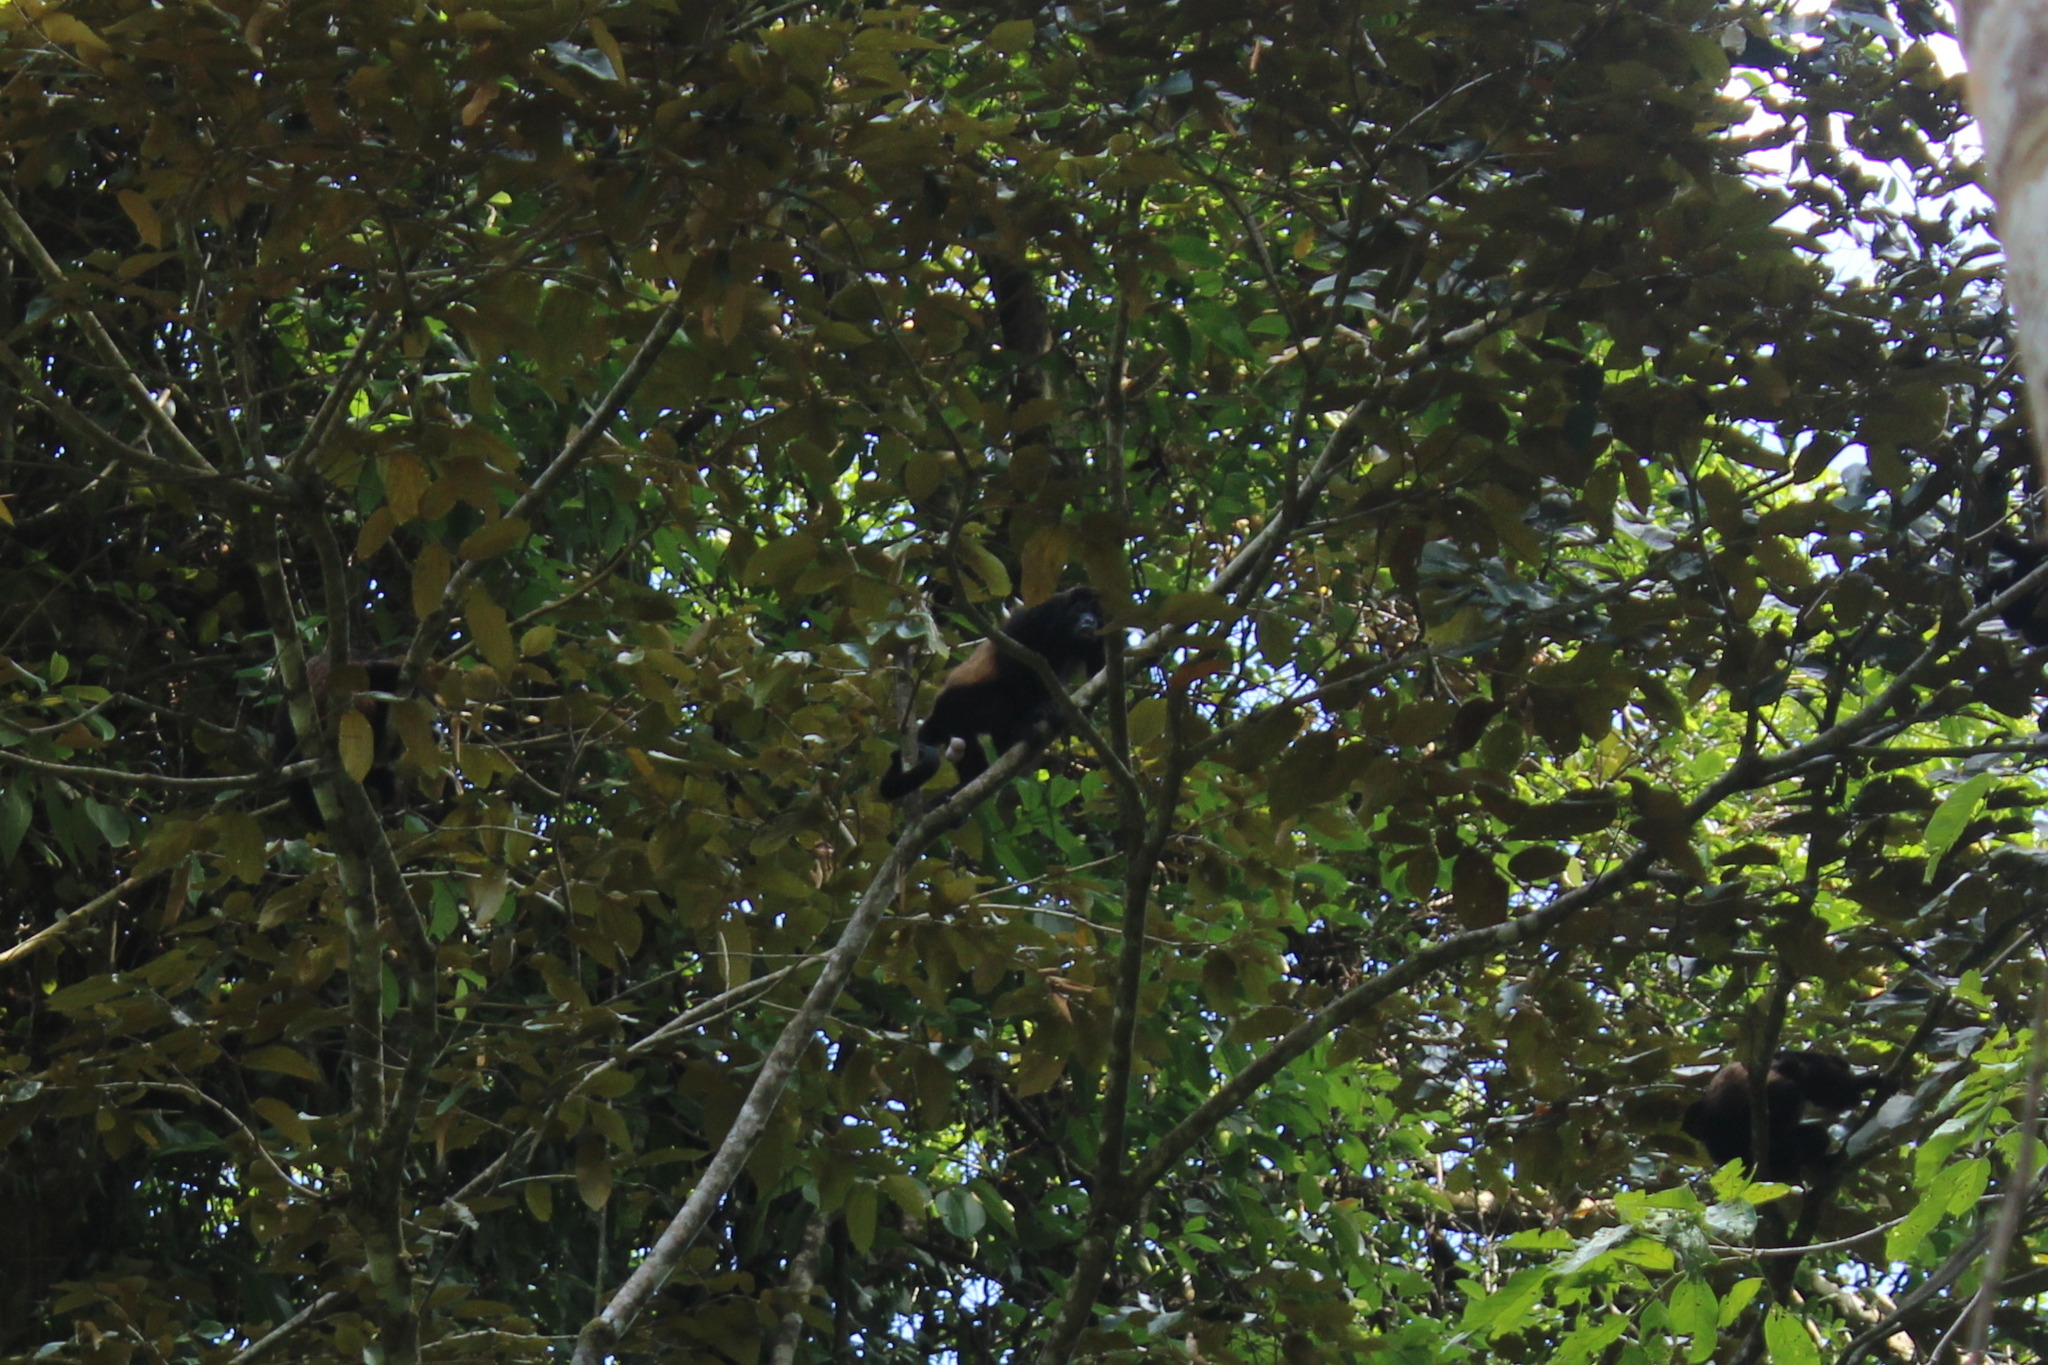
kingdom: Animalia
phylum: Chordata
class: Mammalia
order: Primates
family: Atelidae
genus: Alouatta
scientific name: Alouatta palliata
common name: Mantled howler
